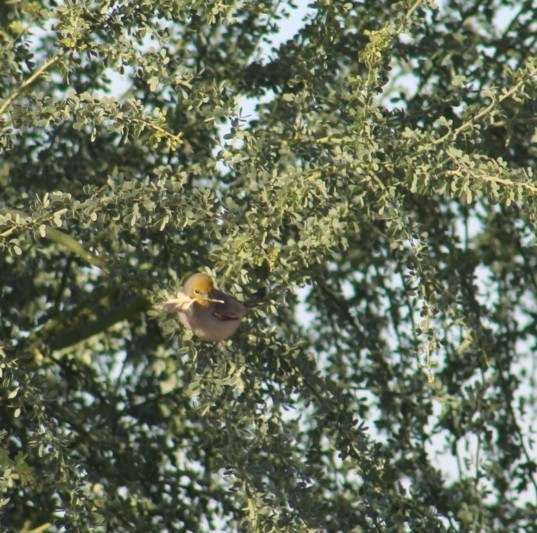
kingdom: Animalia
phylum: Chordata
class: Aves
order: Passeriformes
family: Remizidae
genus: Auriparus
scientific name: Auriparus flaviceps
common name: Verdin
